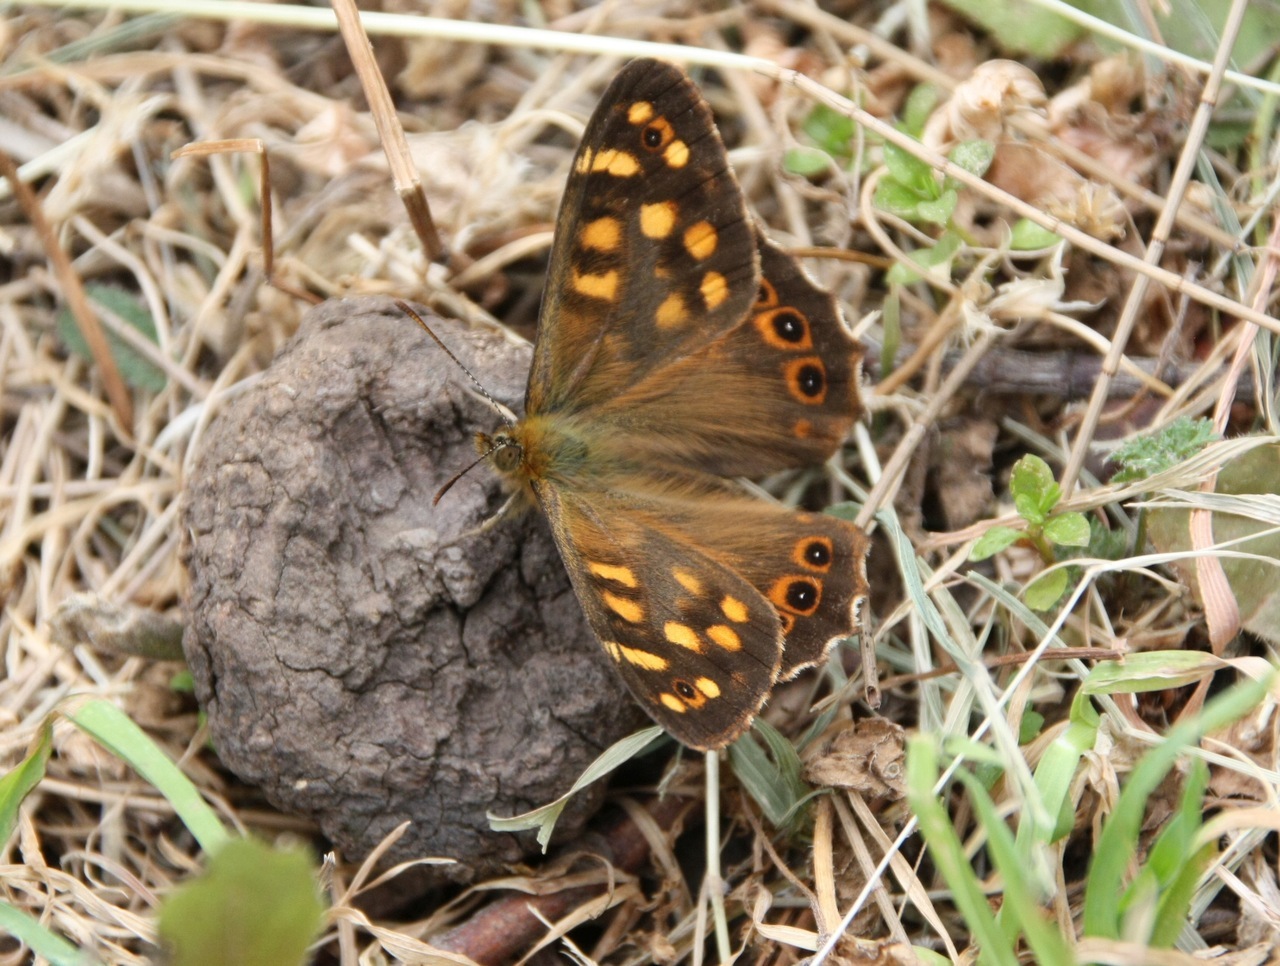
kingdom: Animalia
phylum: Arthropoda
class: Insecta
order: Lepidoptera
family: Nymphalidae
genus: Pararge
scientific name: Pararge aegeria
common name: Speckled wood
